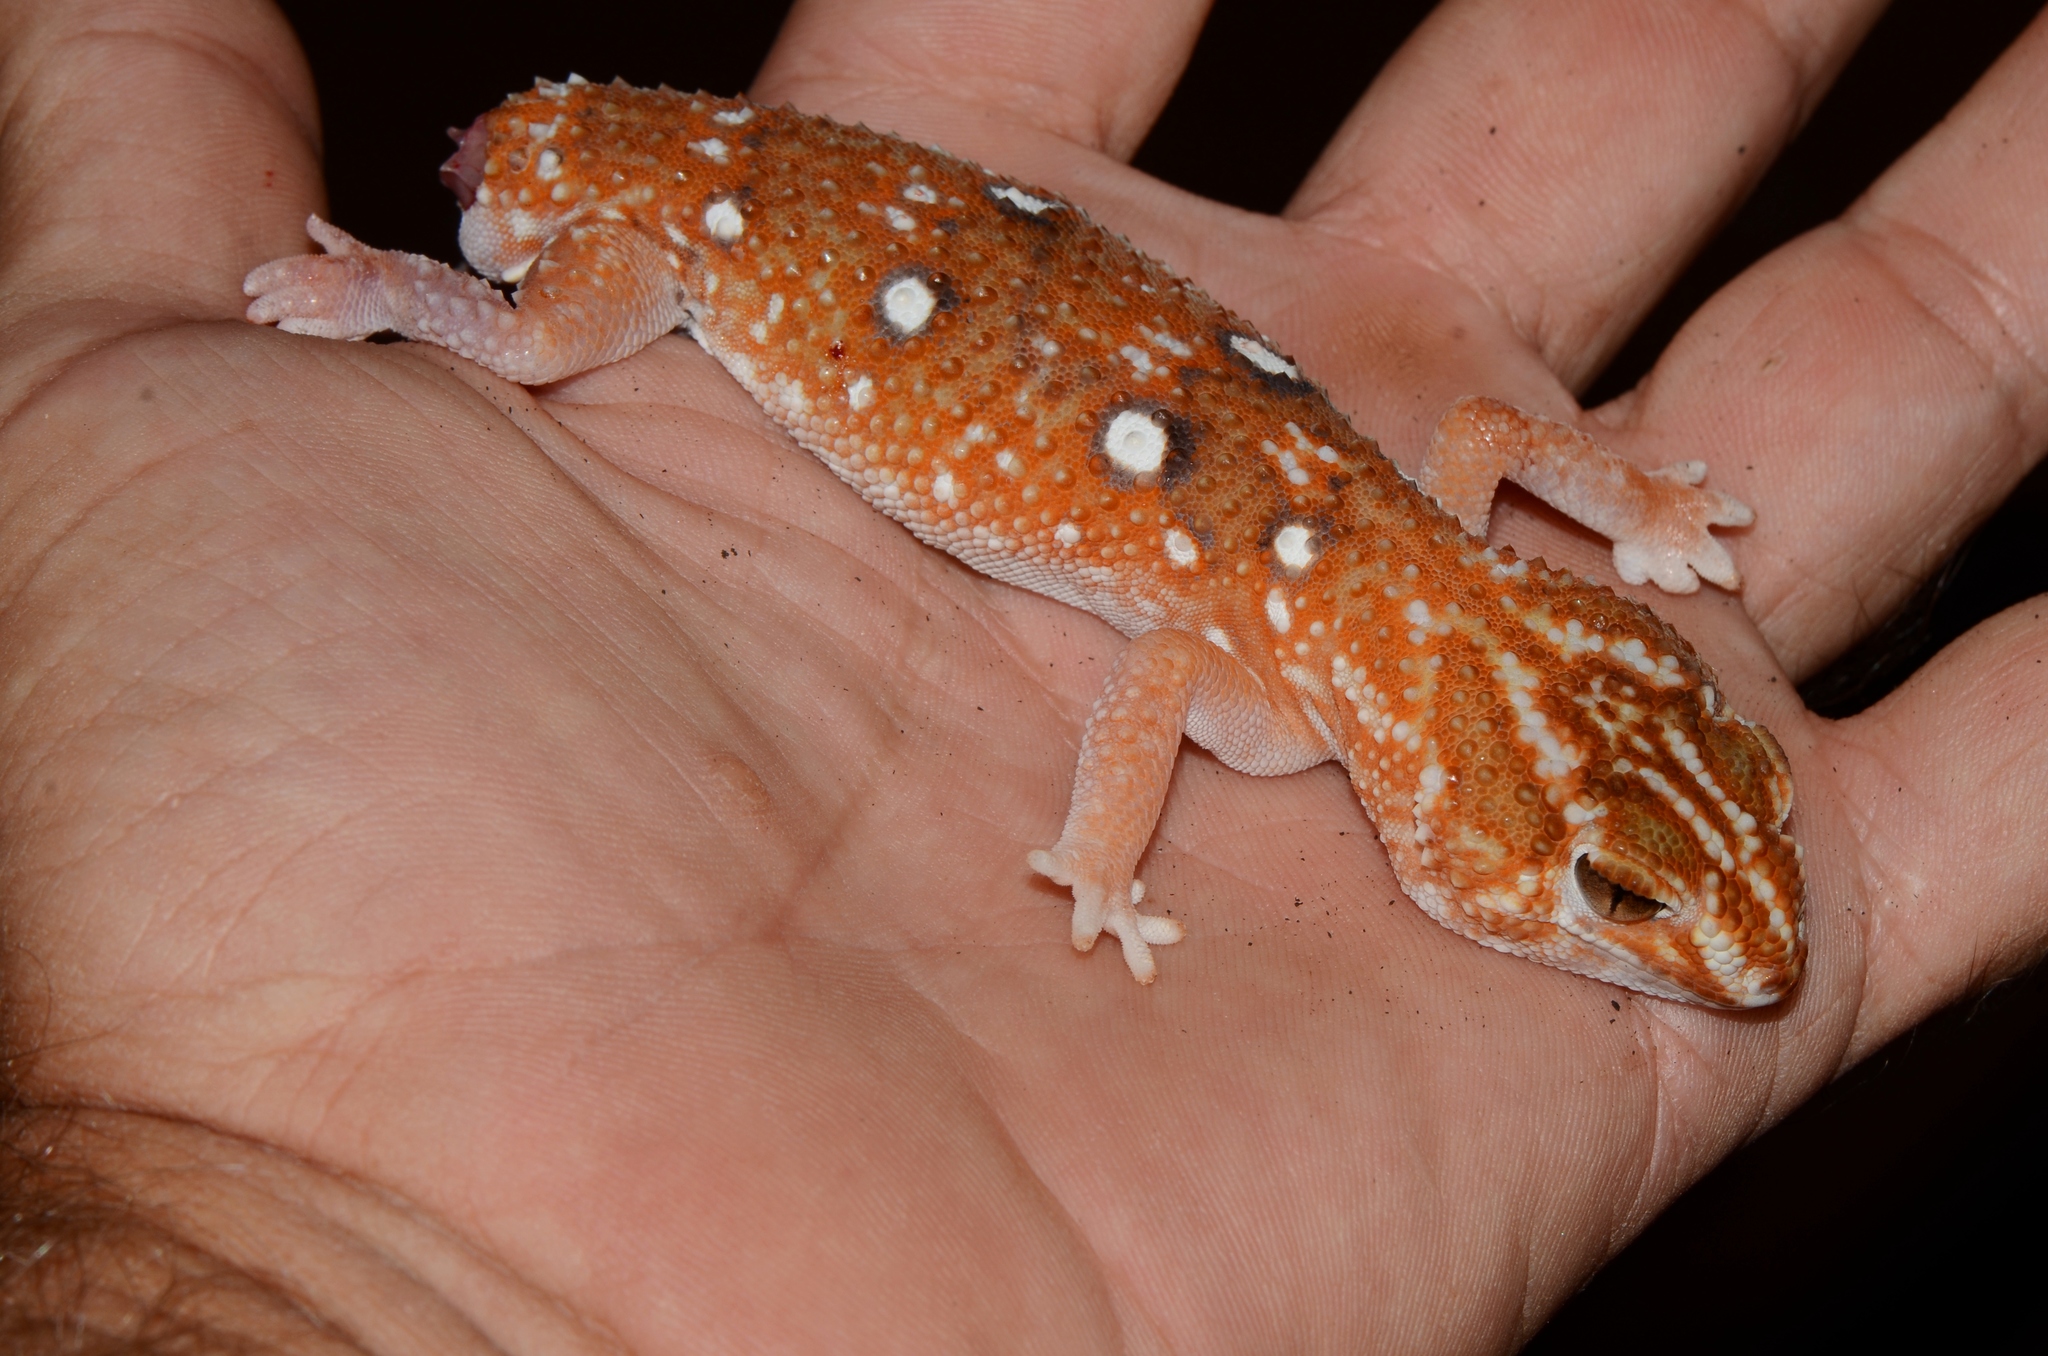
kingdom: Animalia
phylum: Chordata
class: Squamata
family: Gekkonidae
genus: Chondrodactylus
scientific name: Chondrodactylus angulifer
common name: Common giant ground gecko
